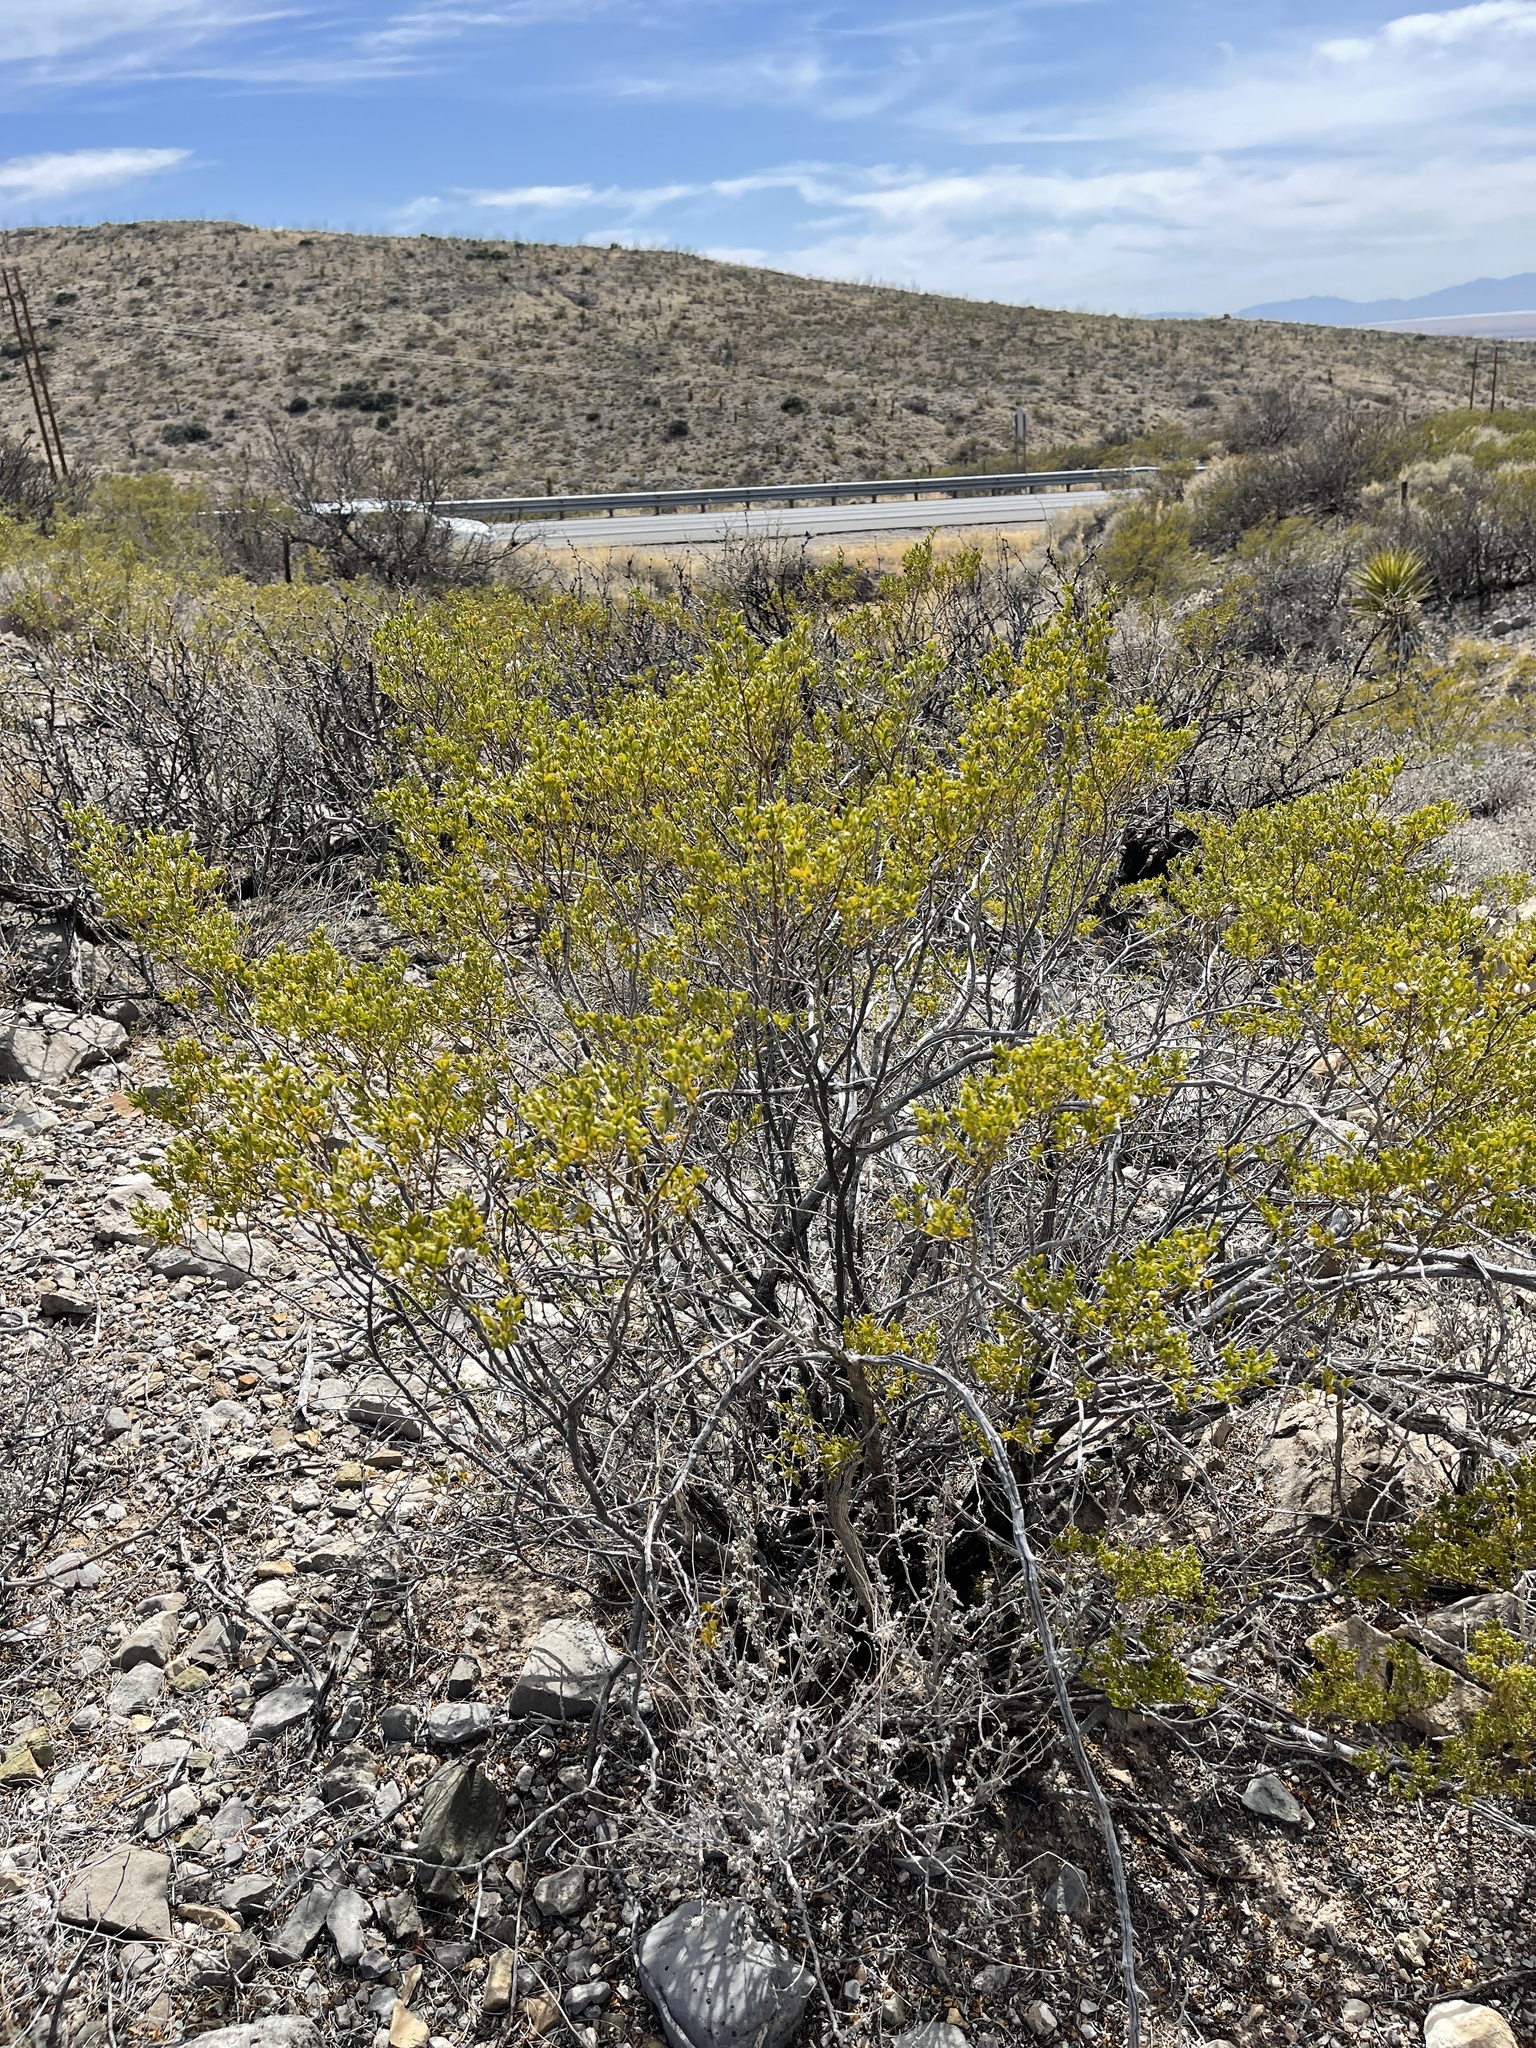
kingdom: Plantae
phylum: Tracheophyta
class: Magnoliopsida
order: Zygophyllales
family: Zygophyllaceae
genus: Larrea
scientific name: Larrea tridentata
